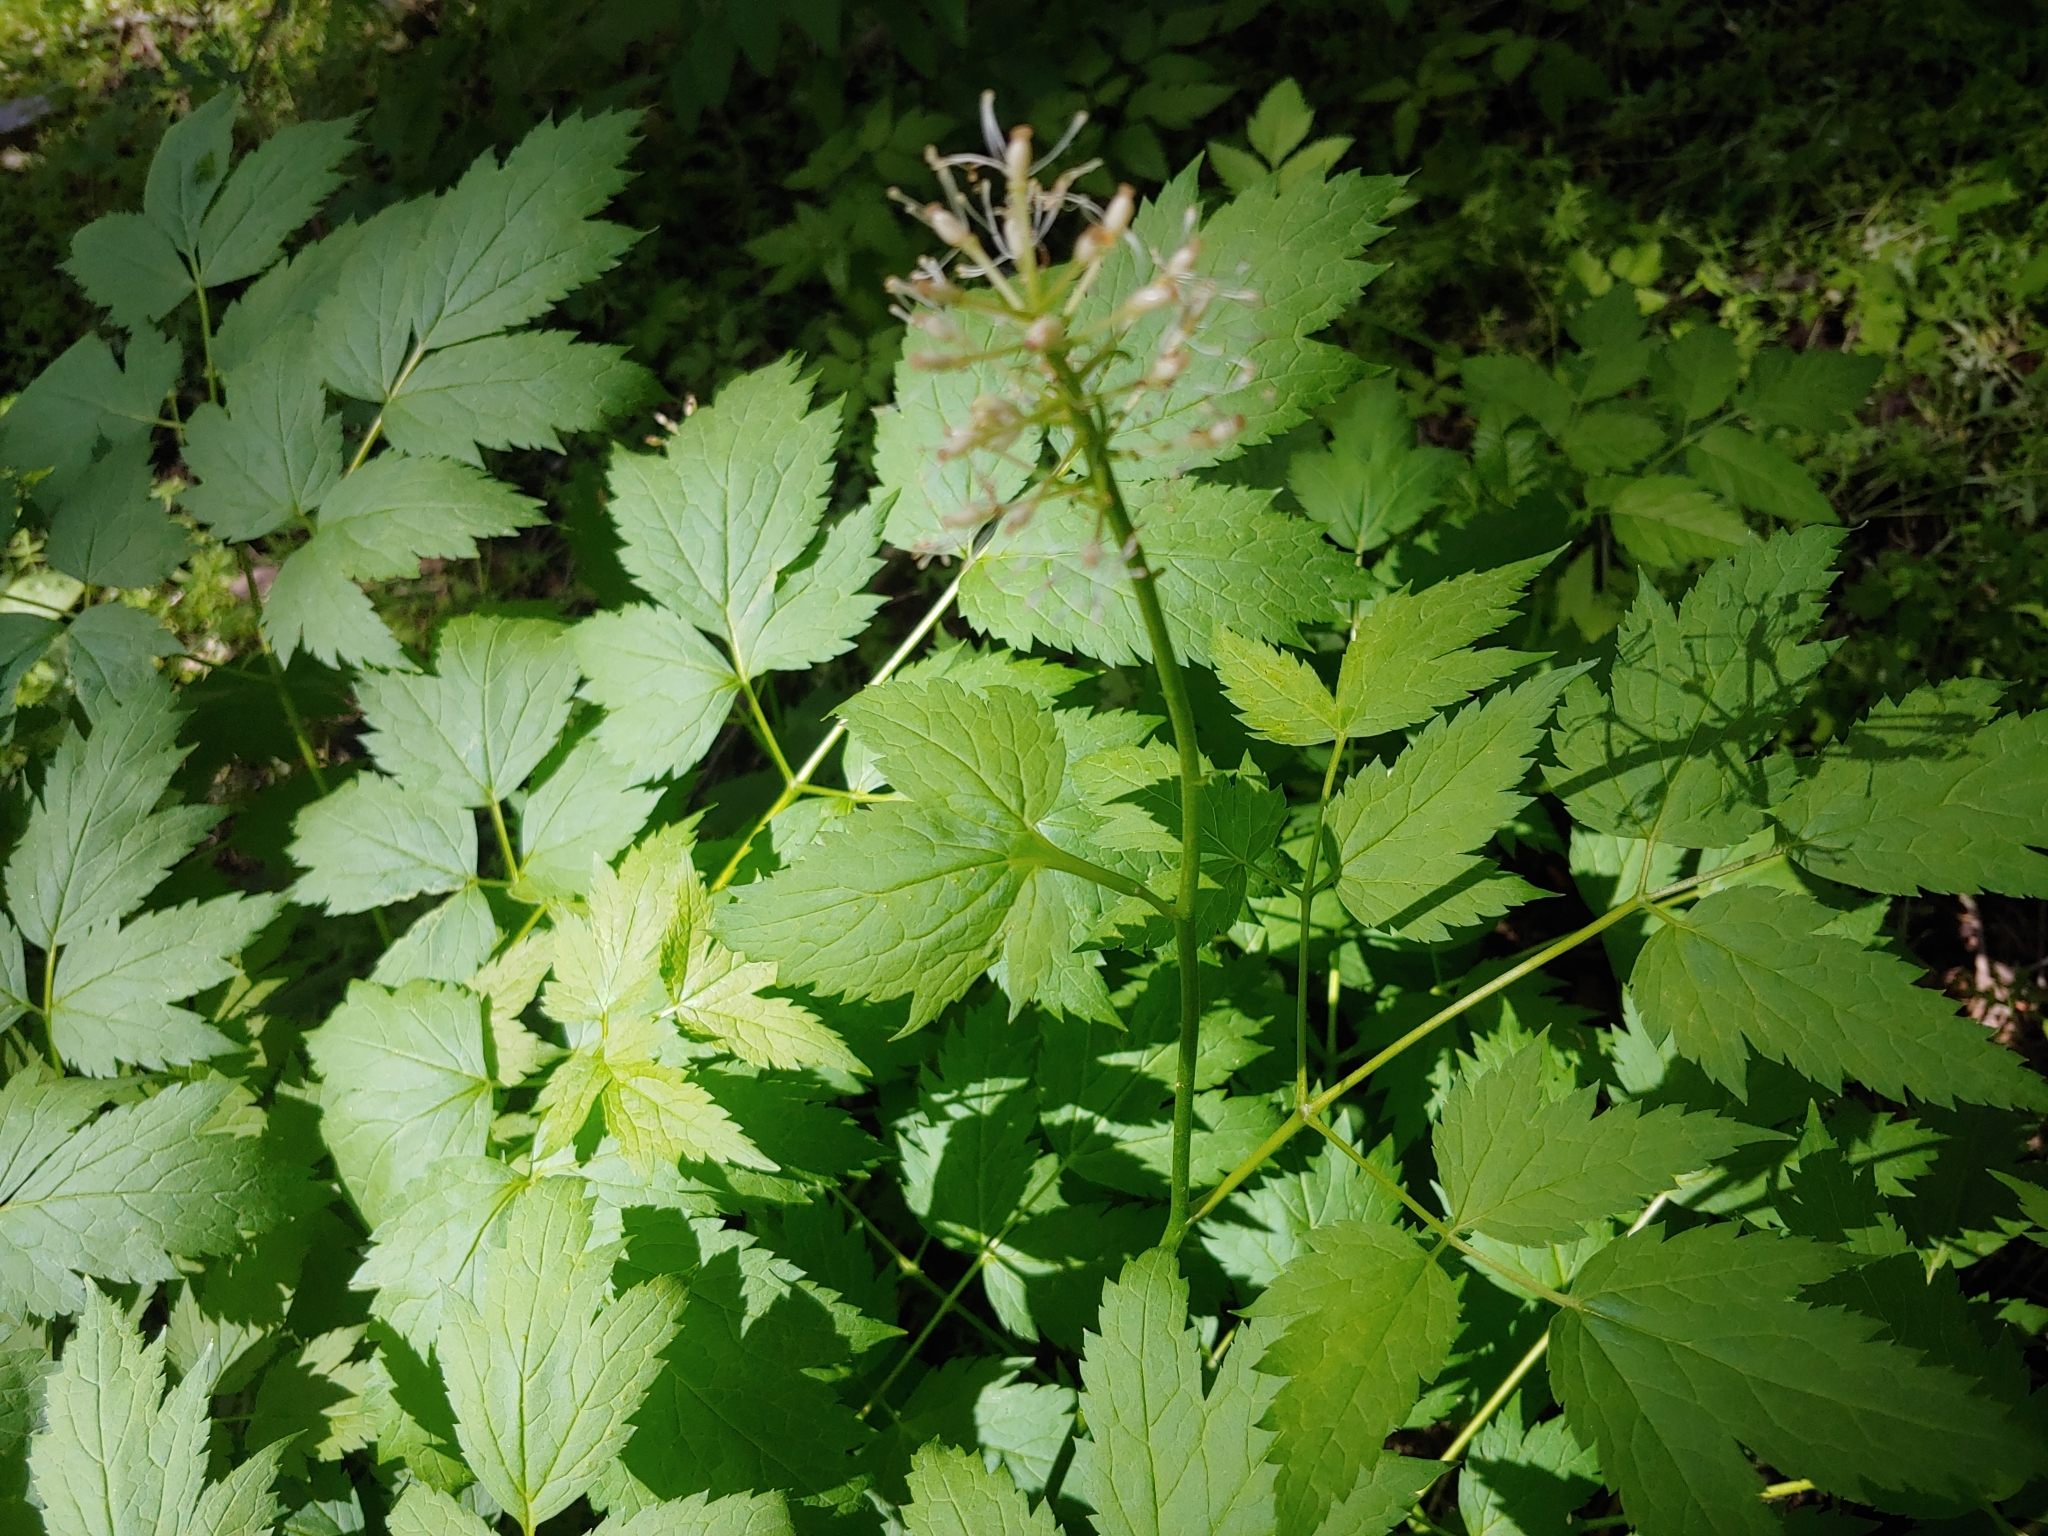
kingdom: Plantae
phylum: Tracheophyta
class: Magnoliopsida
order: Ranunculales
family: Ranunculaceae
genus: Actaea
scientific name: Actaea rubra
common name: Red baneberry
